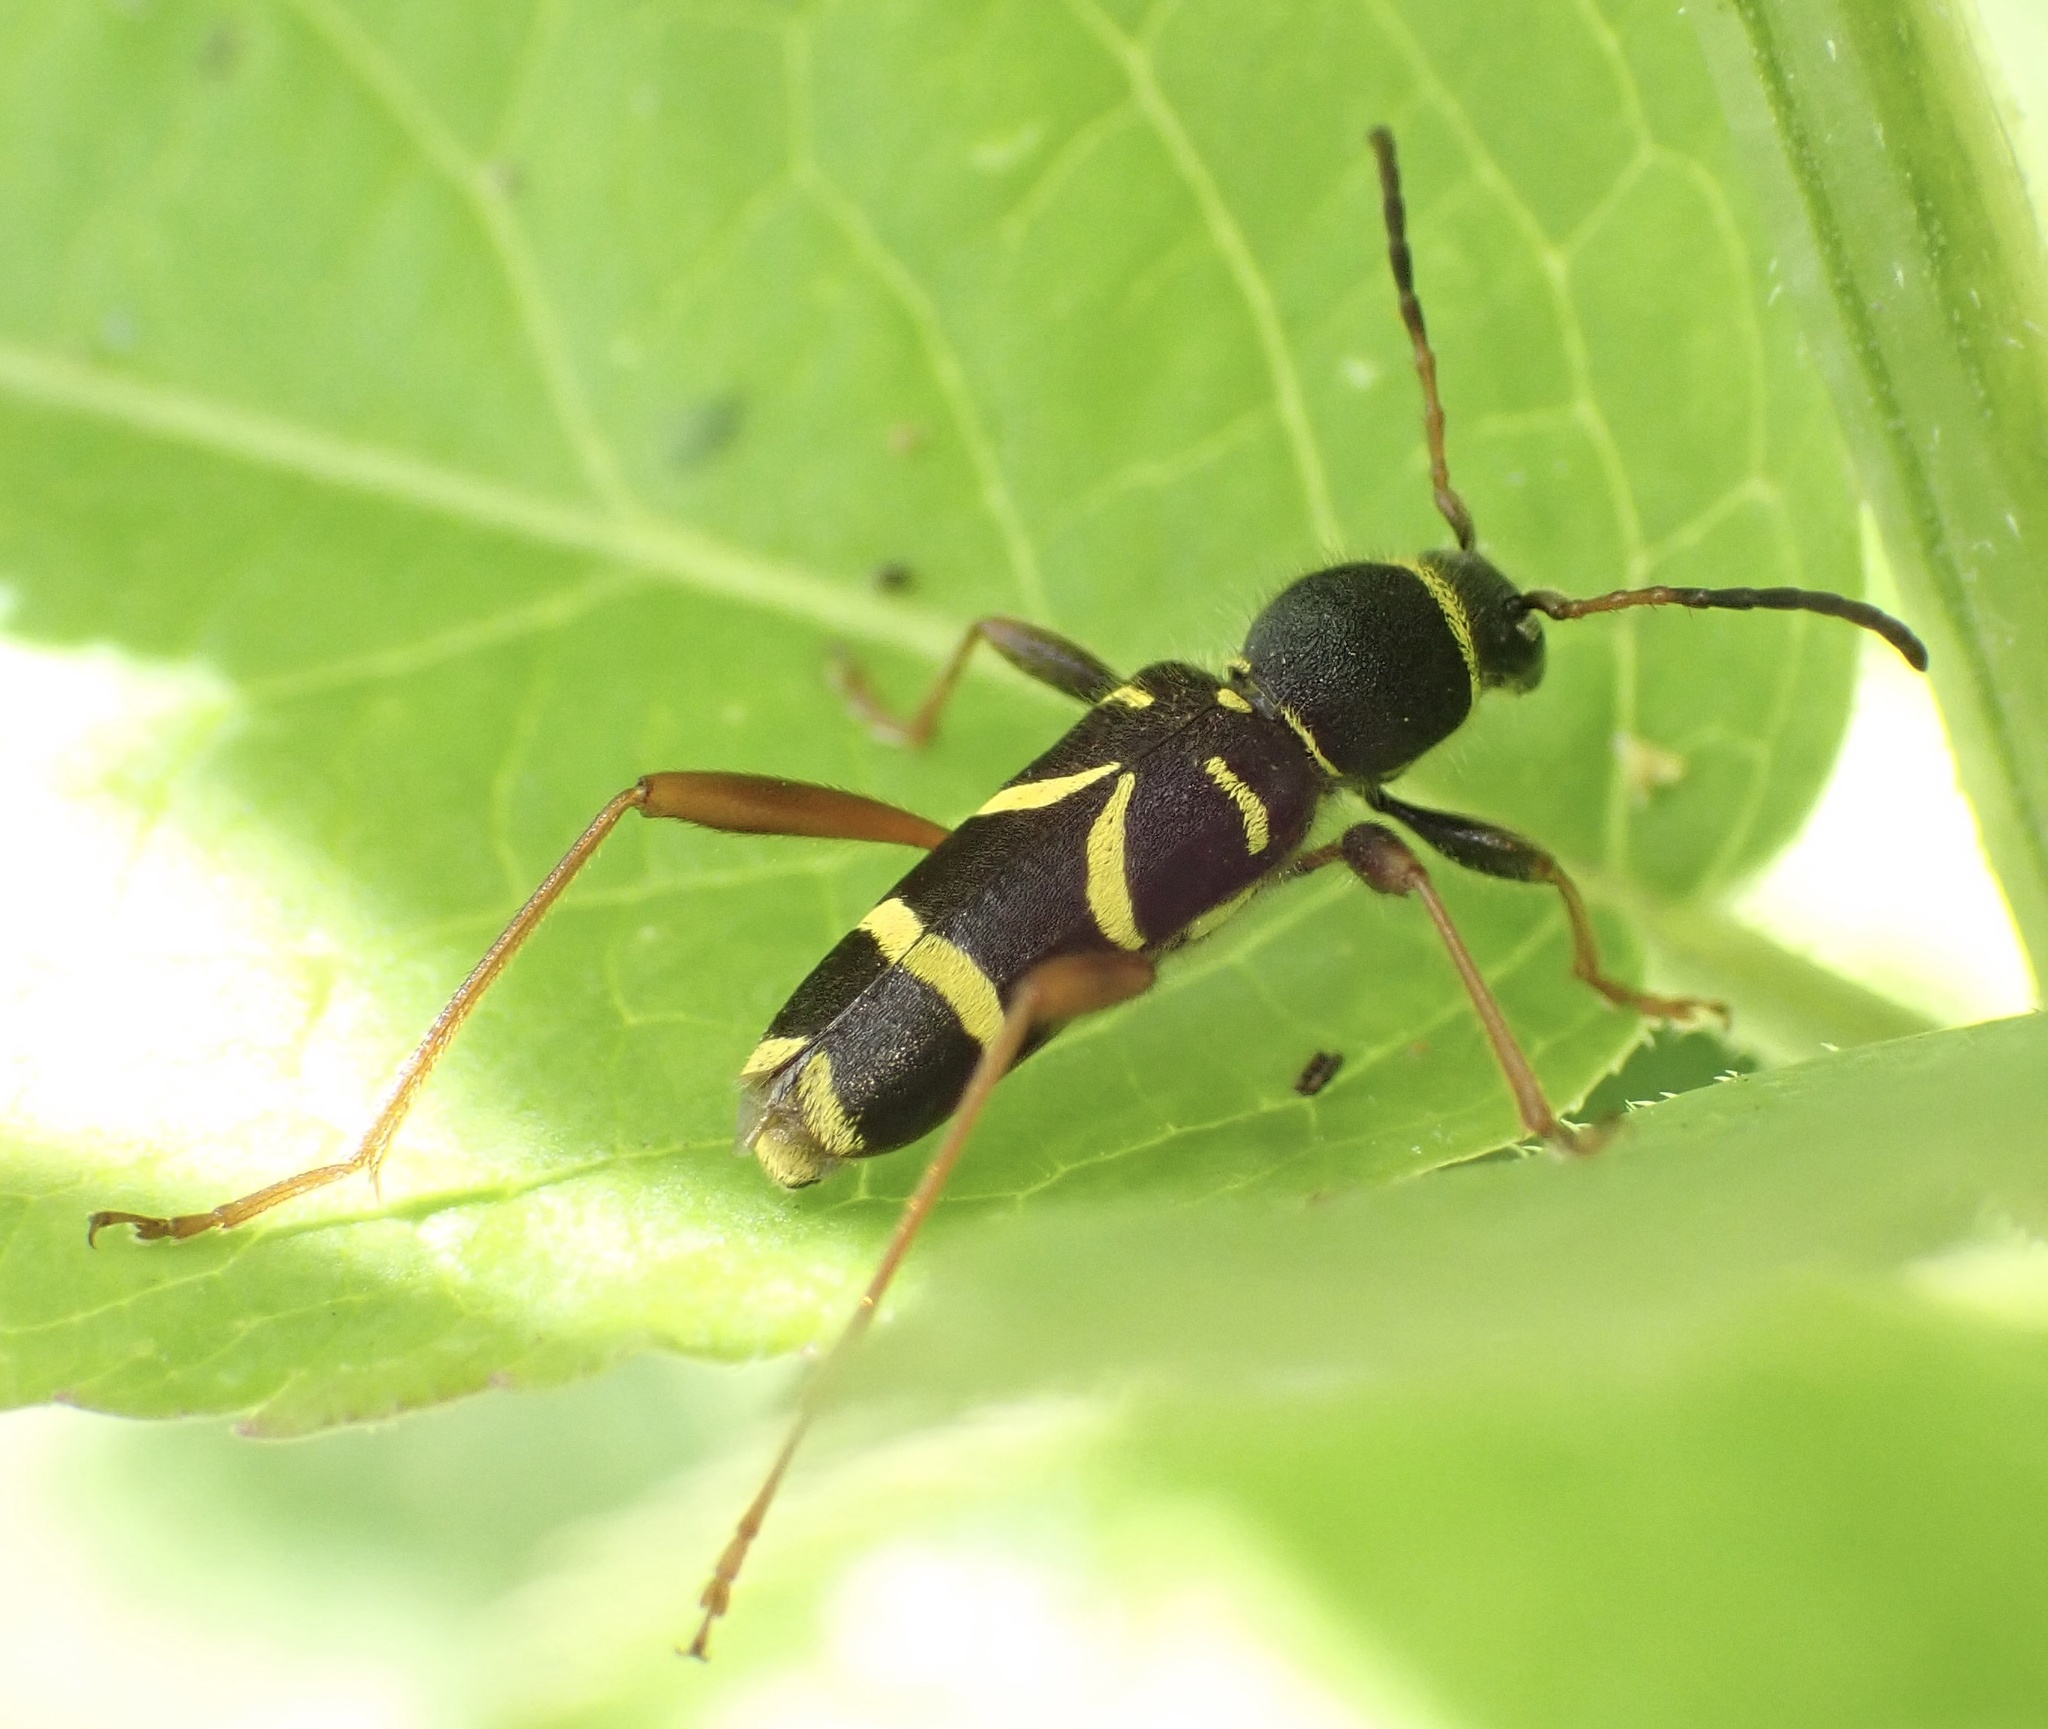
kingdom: Animalia
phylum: Arthropoda
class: Insecta
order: Coleoptera
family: Cerambycidae
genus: Clytus
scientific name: Clytus arietis
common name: Wasp beetle
